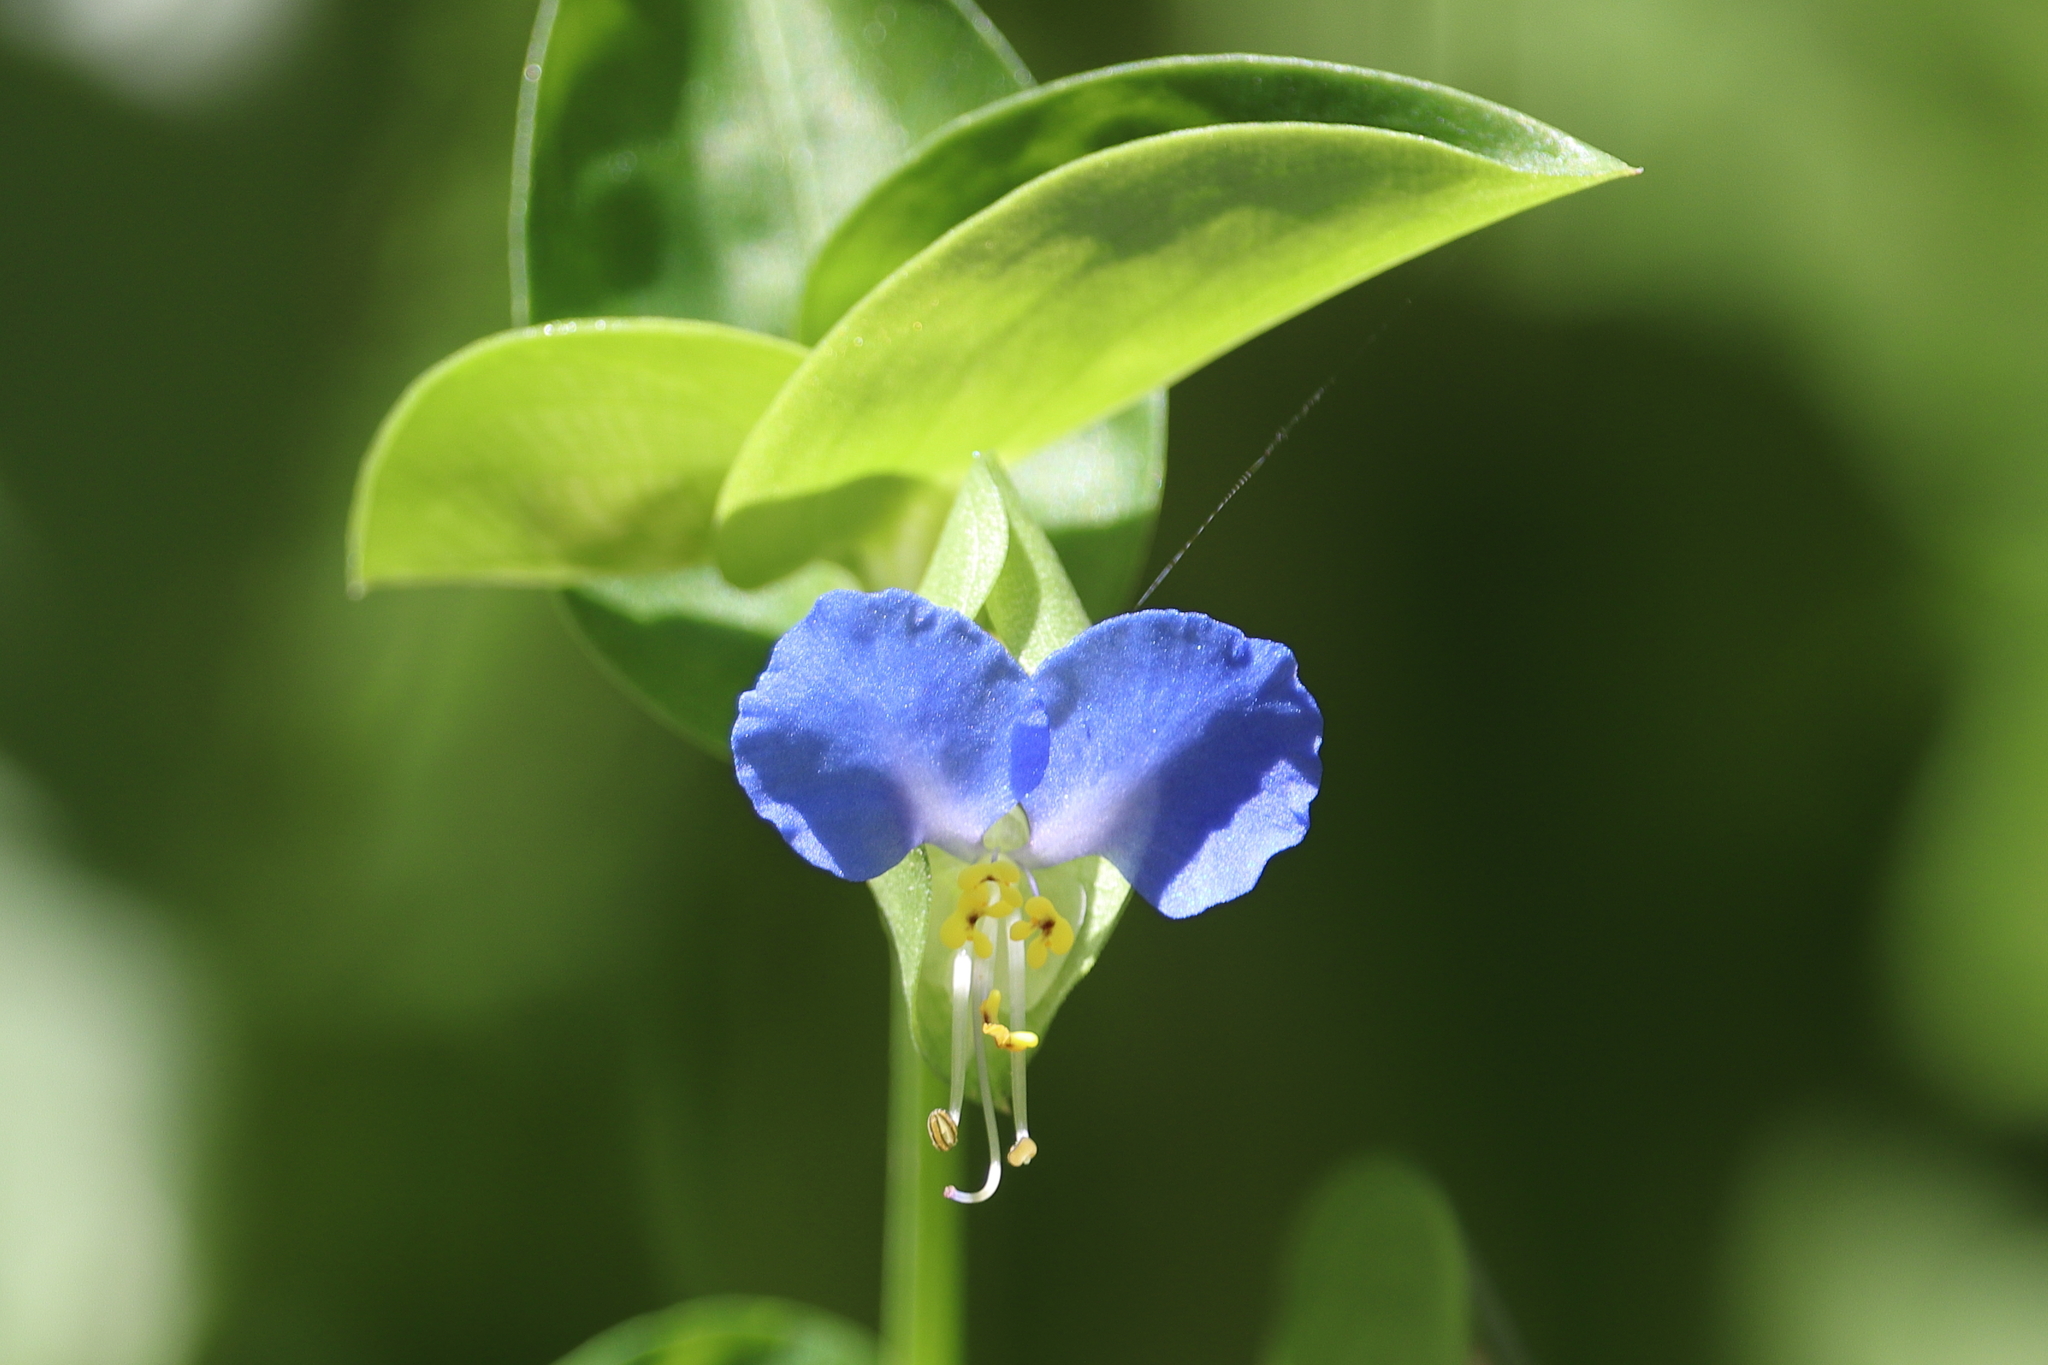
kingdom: Plantae
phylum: Tracheophyta
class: Liliopsida
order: Commelinales
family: Commelinaceae
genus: Commelina
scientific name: Commelina communis
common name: Asiatic dayflower
